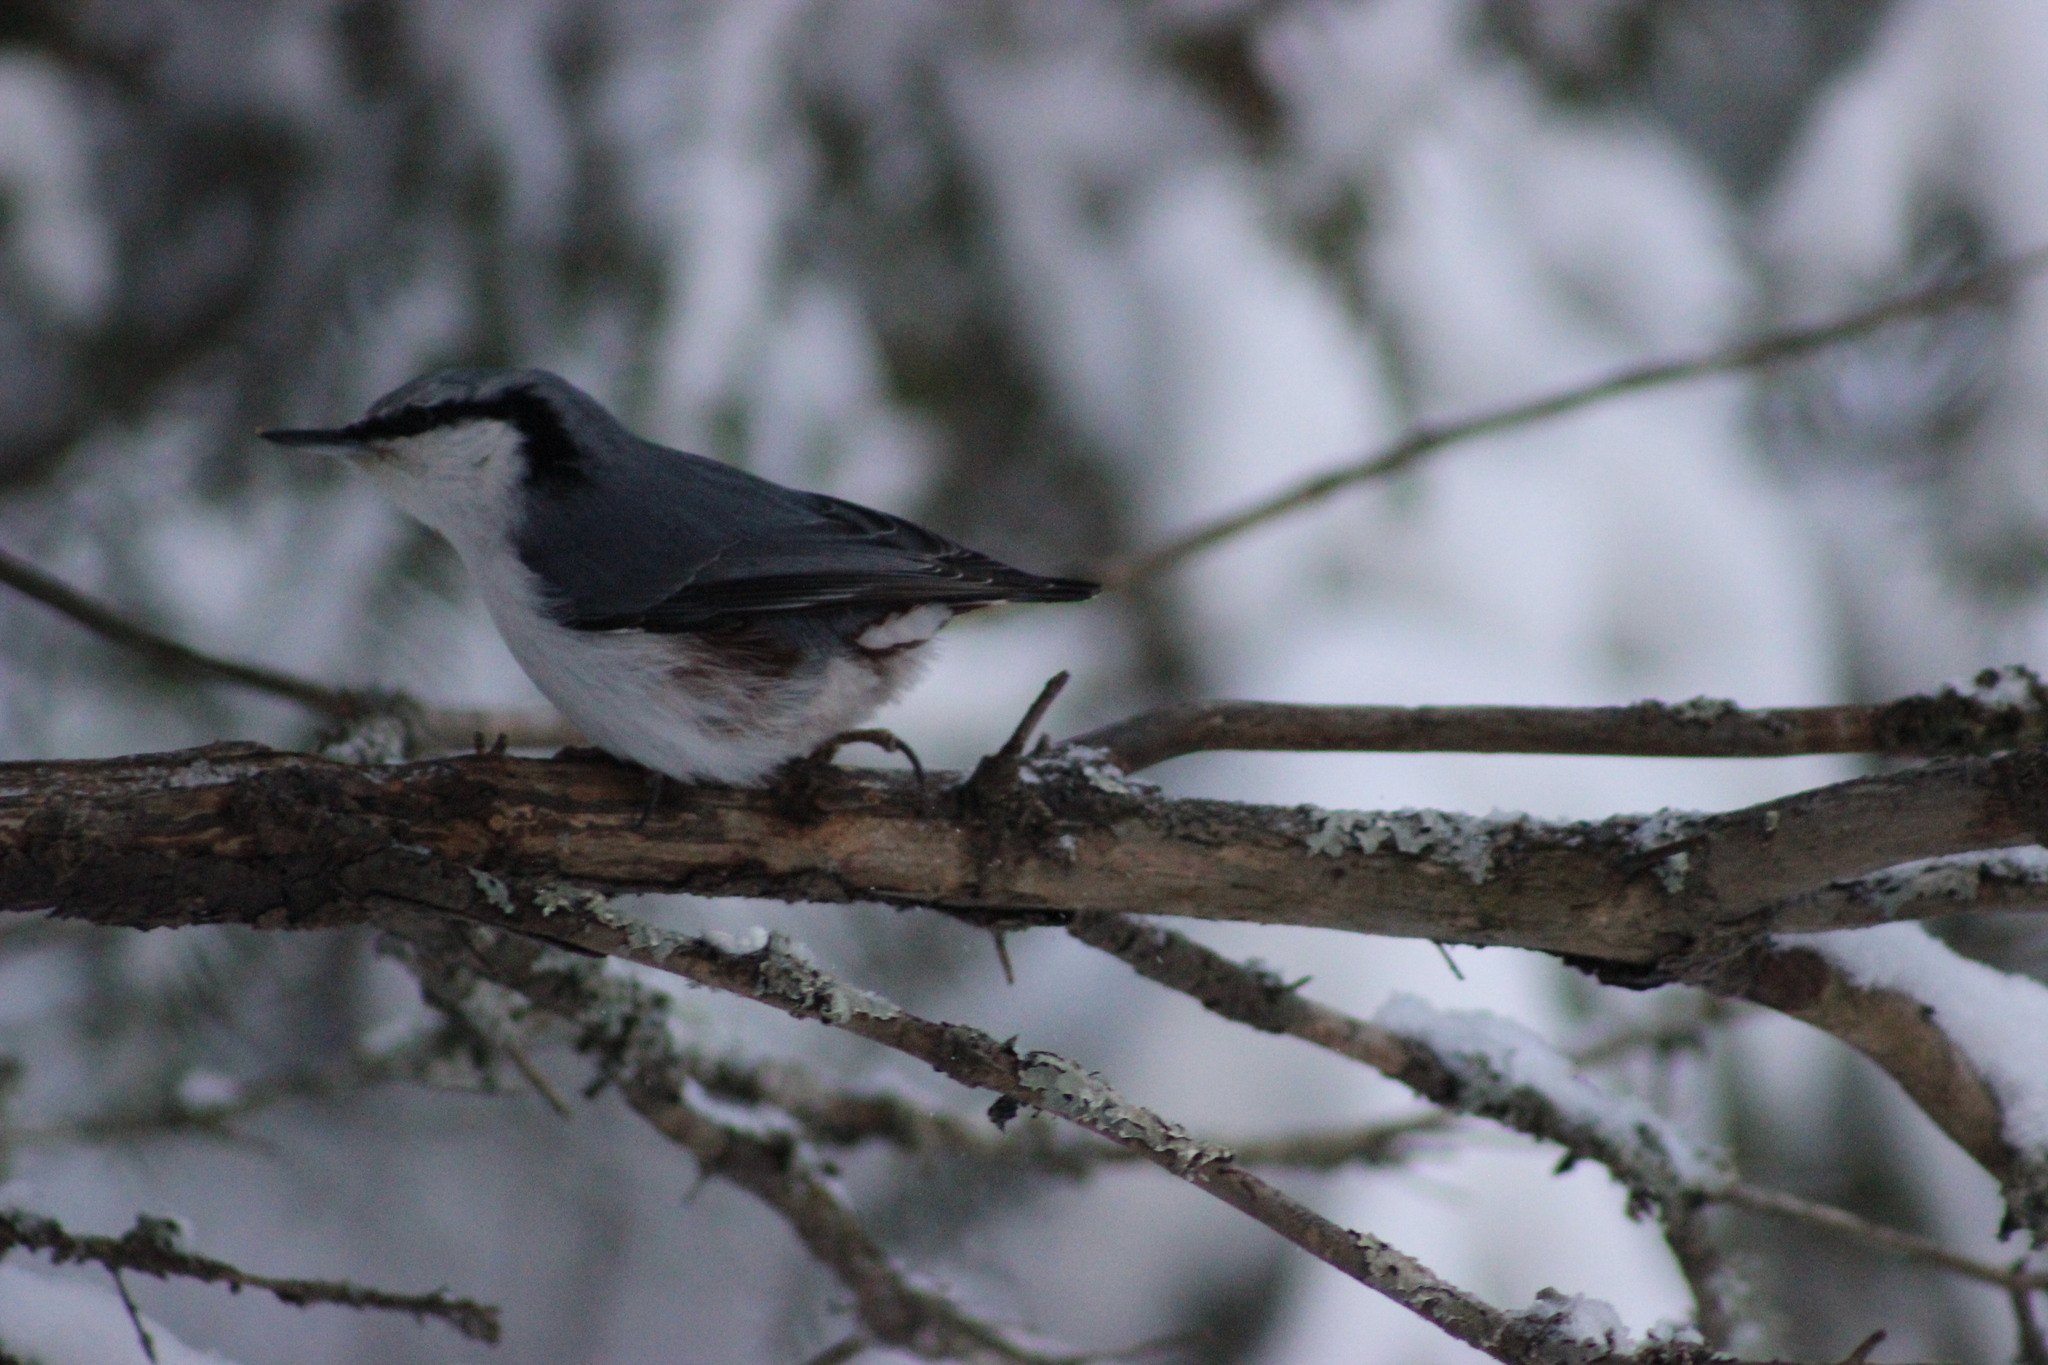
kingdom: Animalia
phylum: Chordata
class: Aves
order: Passeriformes
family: Sittidae
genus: Sitta
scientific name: Sitta europaea
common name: Eurasian nuthatch
